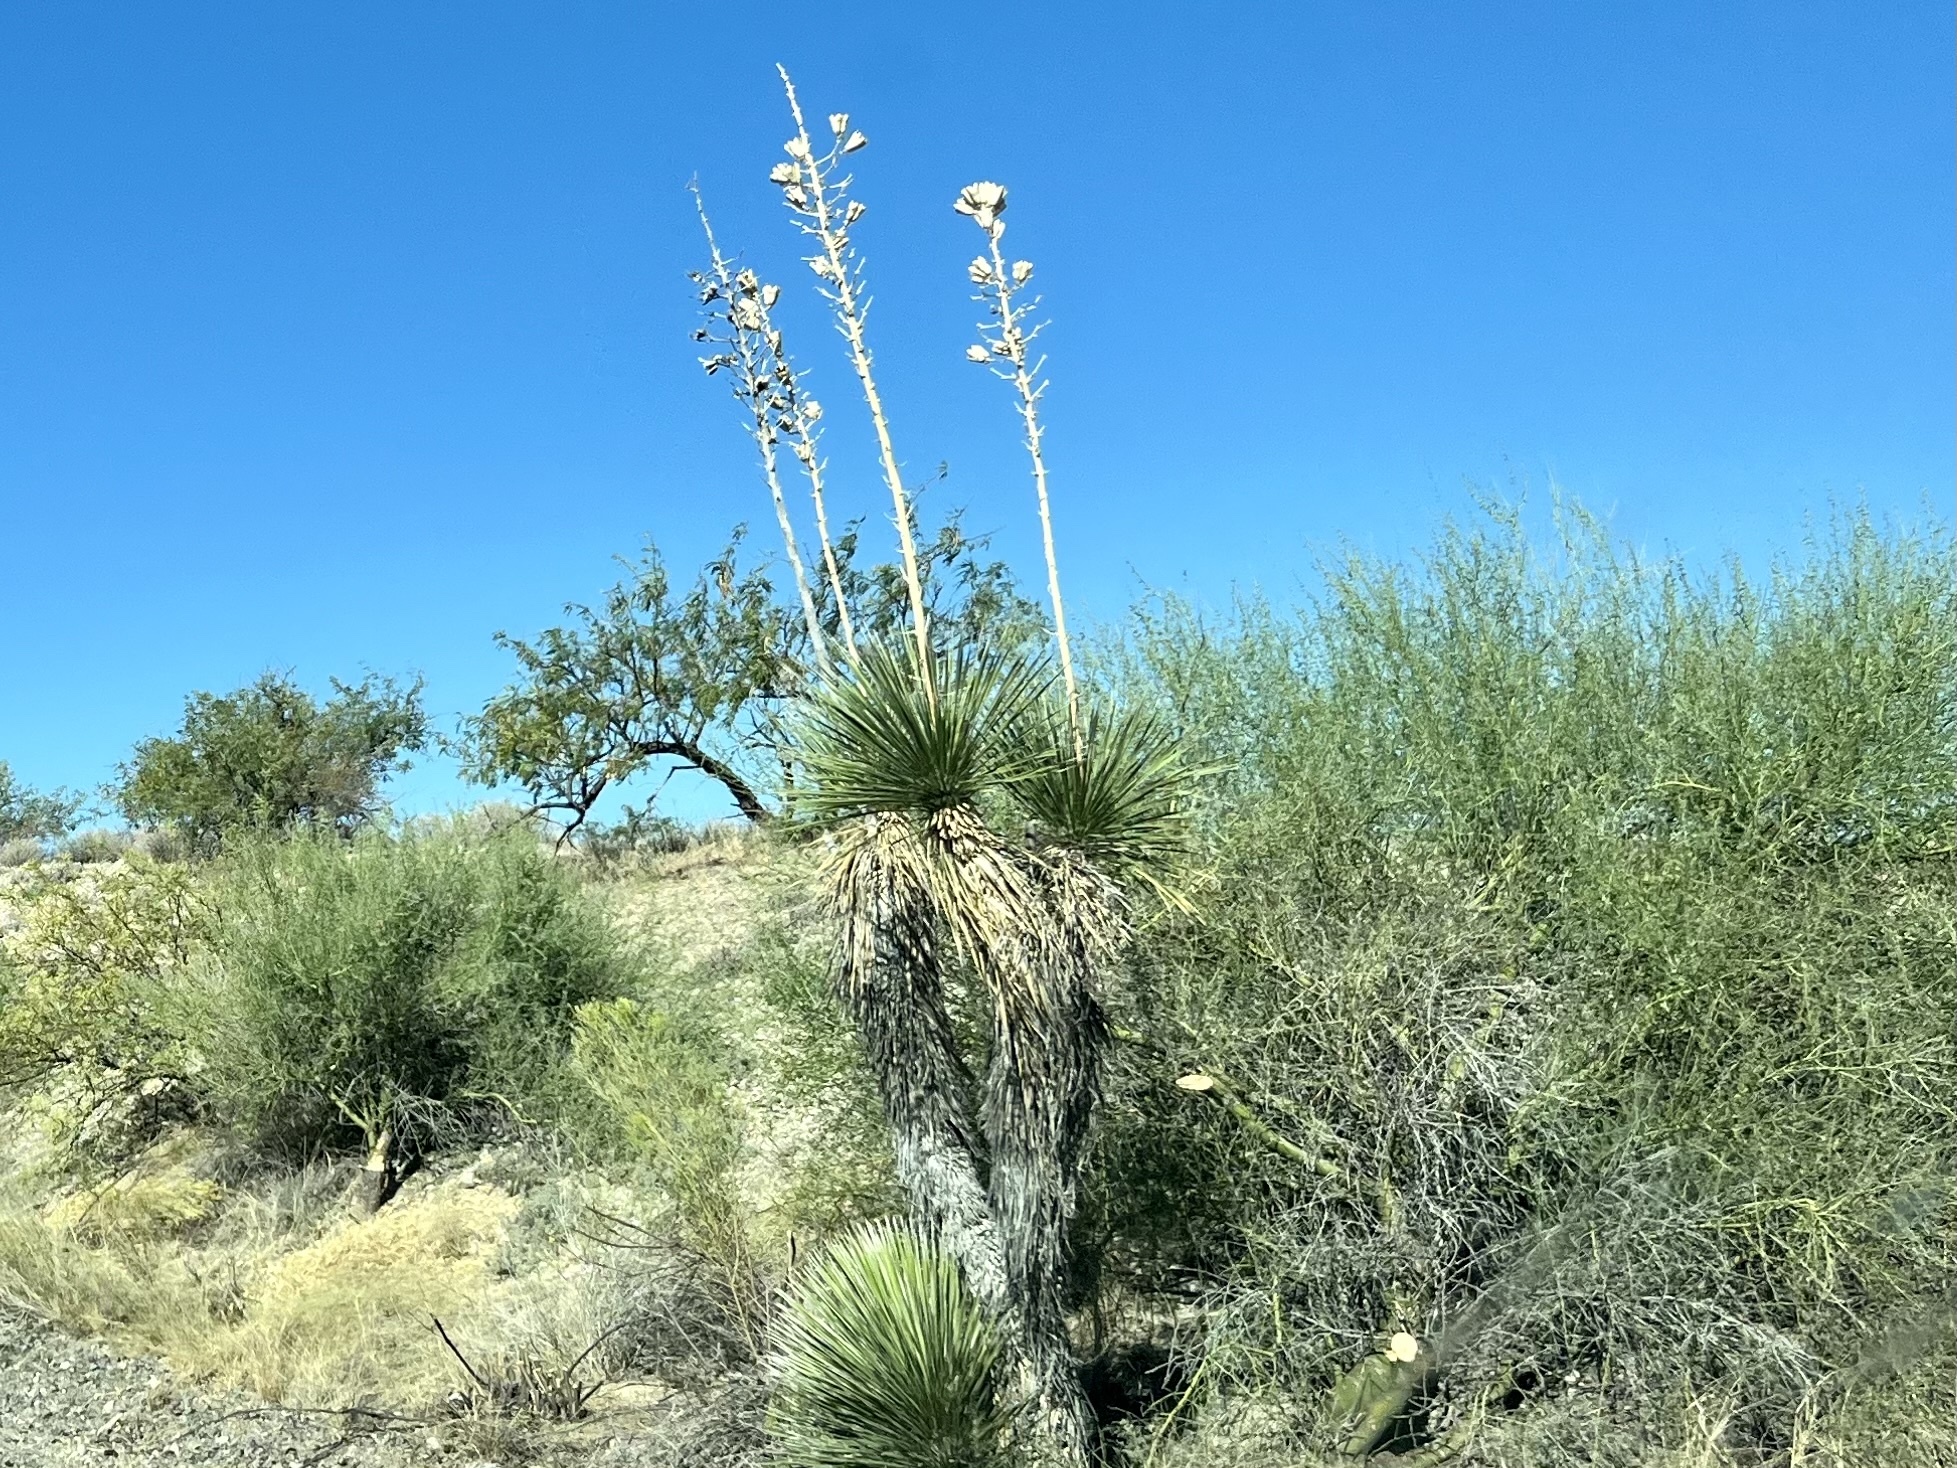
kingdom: Plantae
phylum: Tracheophyta
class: Liliopsida
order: Asparagales
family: Asparagaceae
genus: Yucca
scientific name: Yucca elata
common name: Palmella
